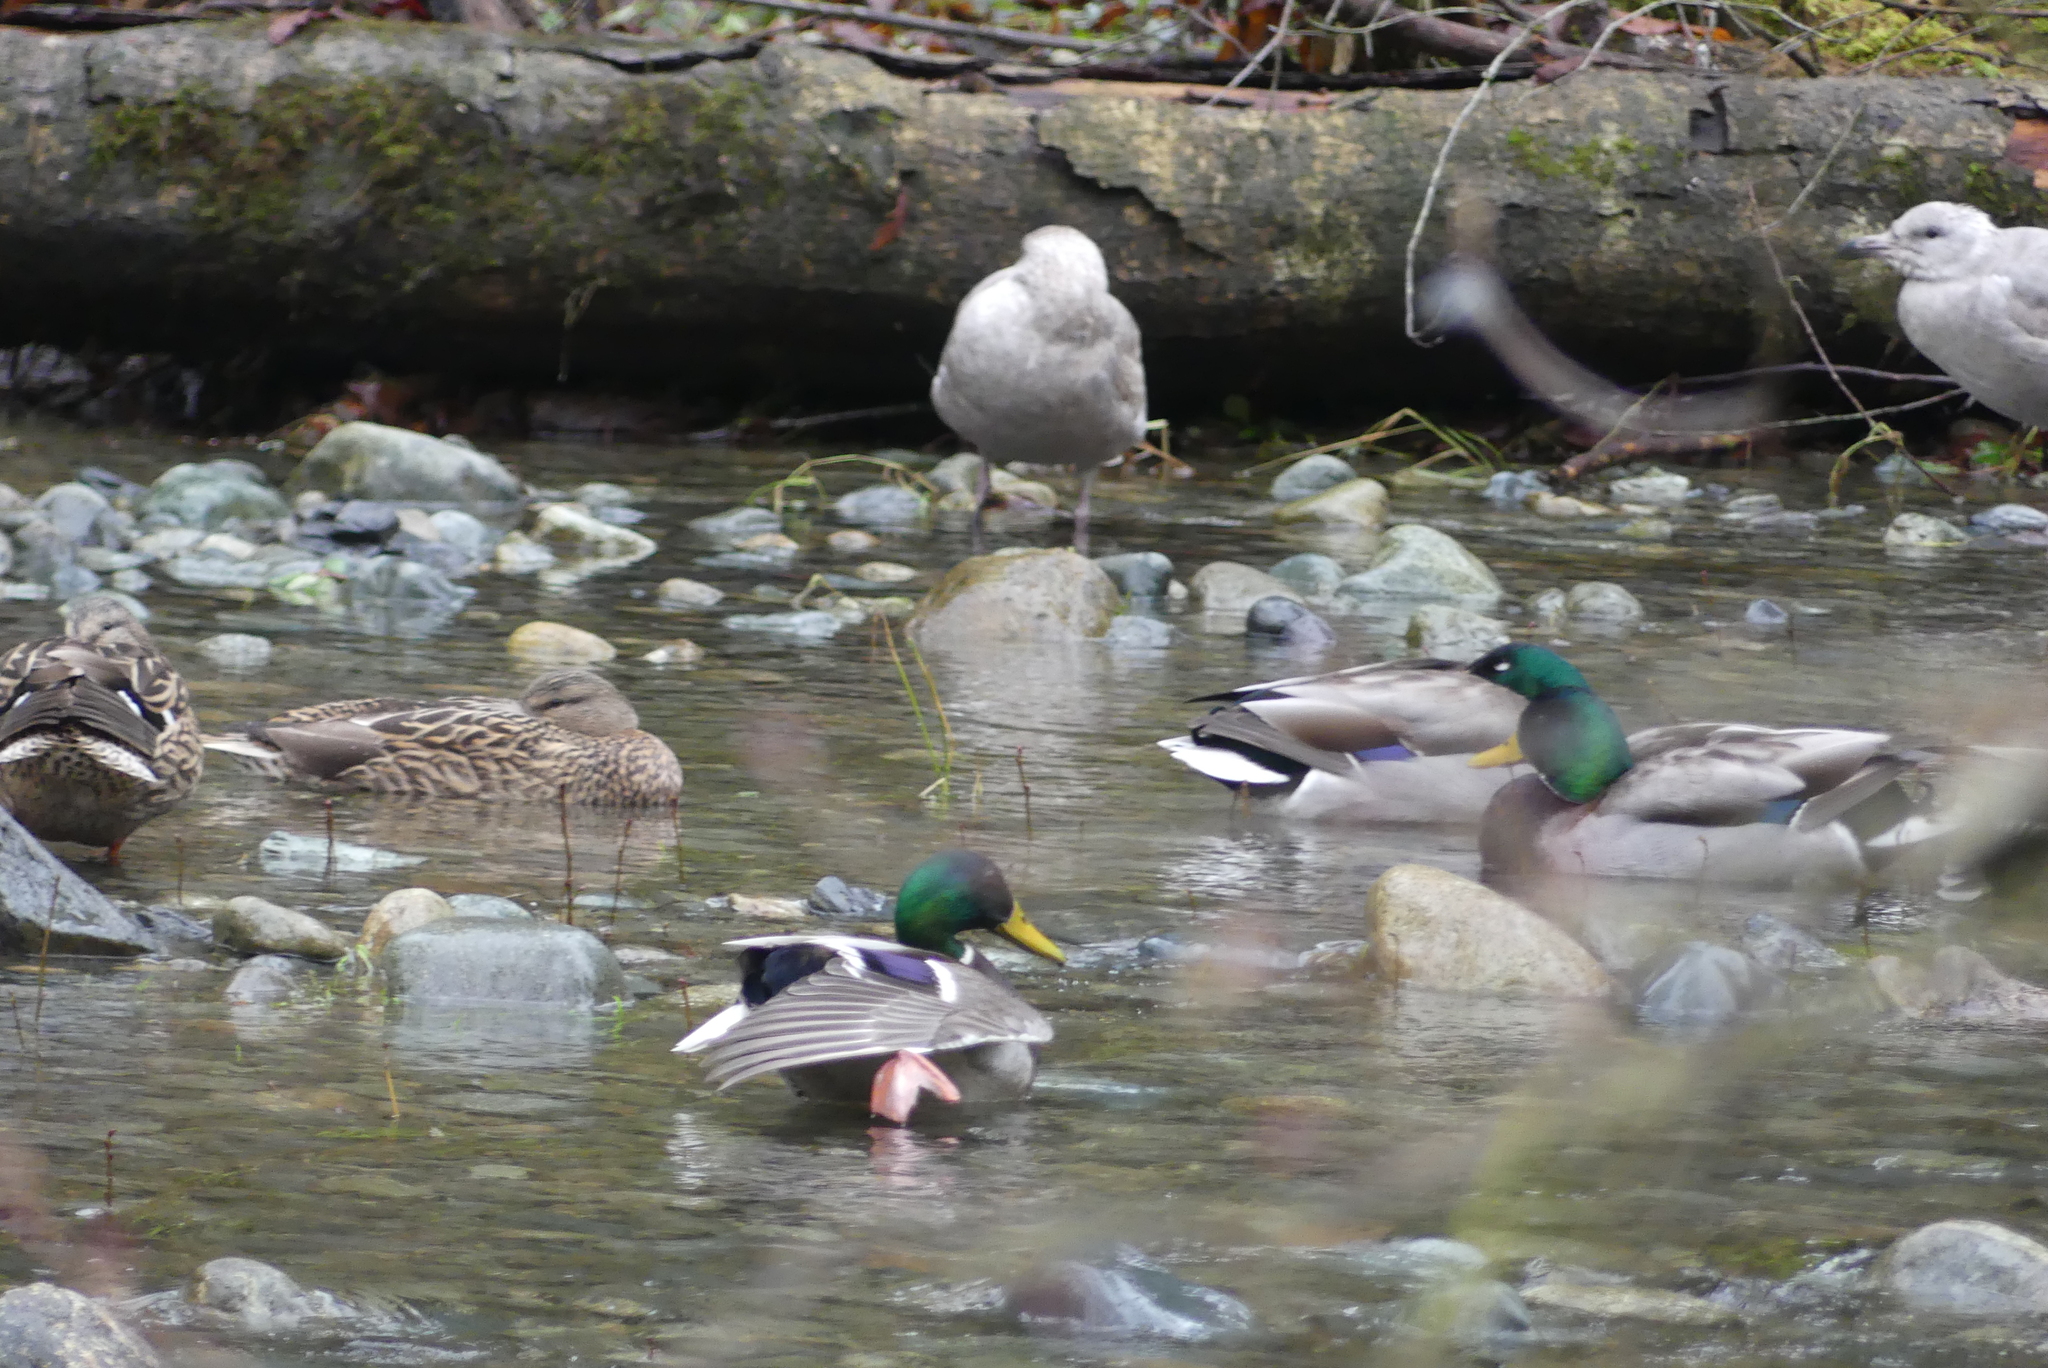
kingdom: Animalia
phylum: Chordata
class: Aves
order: Anseriformes
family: Anatidae
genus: Anas
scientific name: Anas platyrhynchos
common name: Mallard
